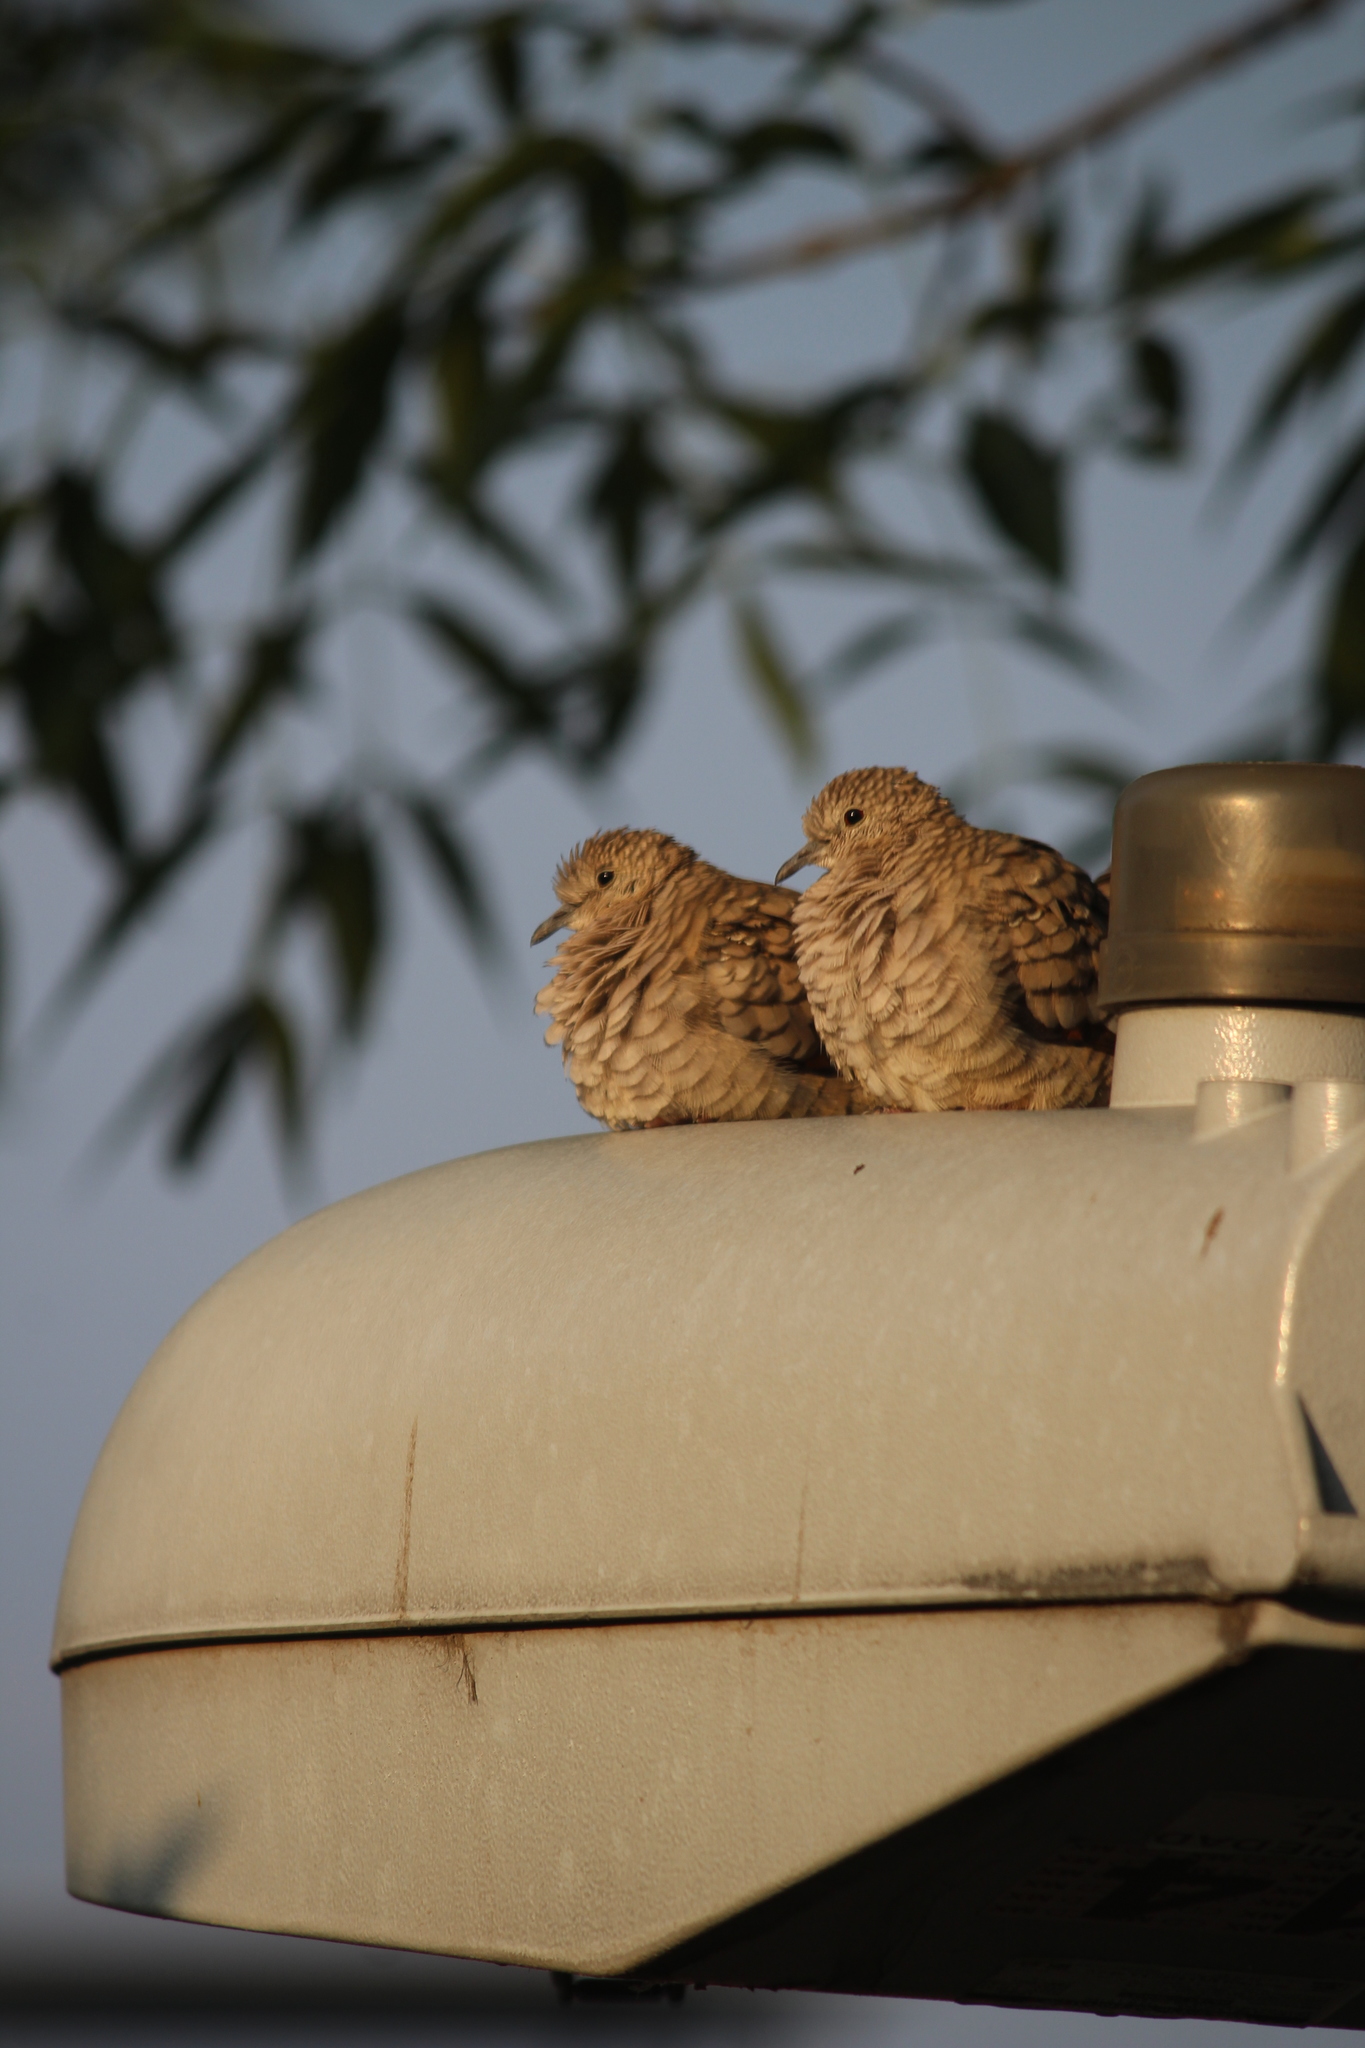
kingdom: Animalia
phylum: Chordata
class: Aves
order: Columbiformes
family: Columbidae
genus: Columbina
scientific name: Columbina inca
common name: Inca dove
